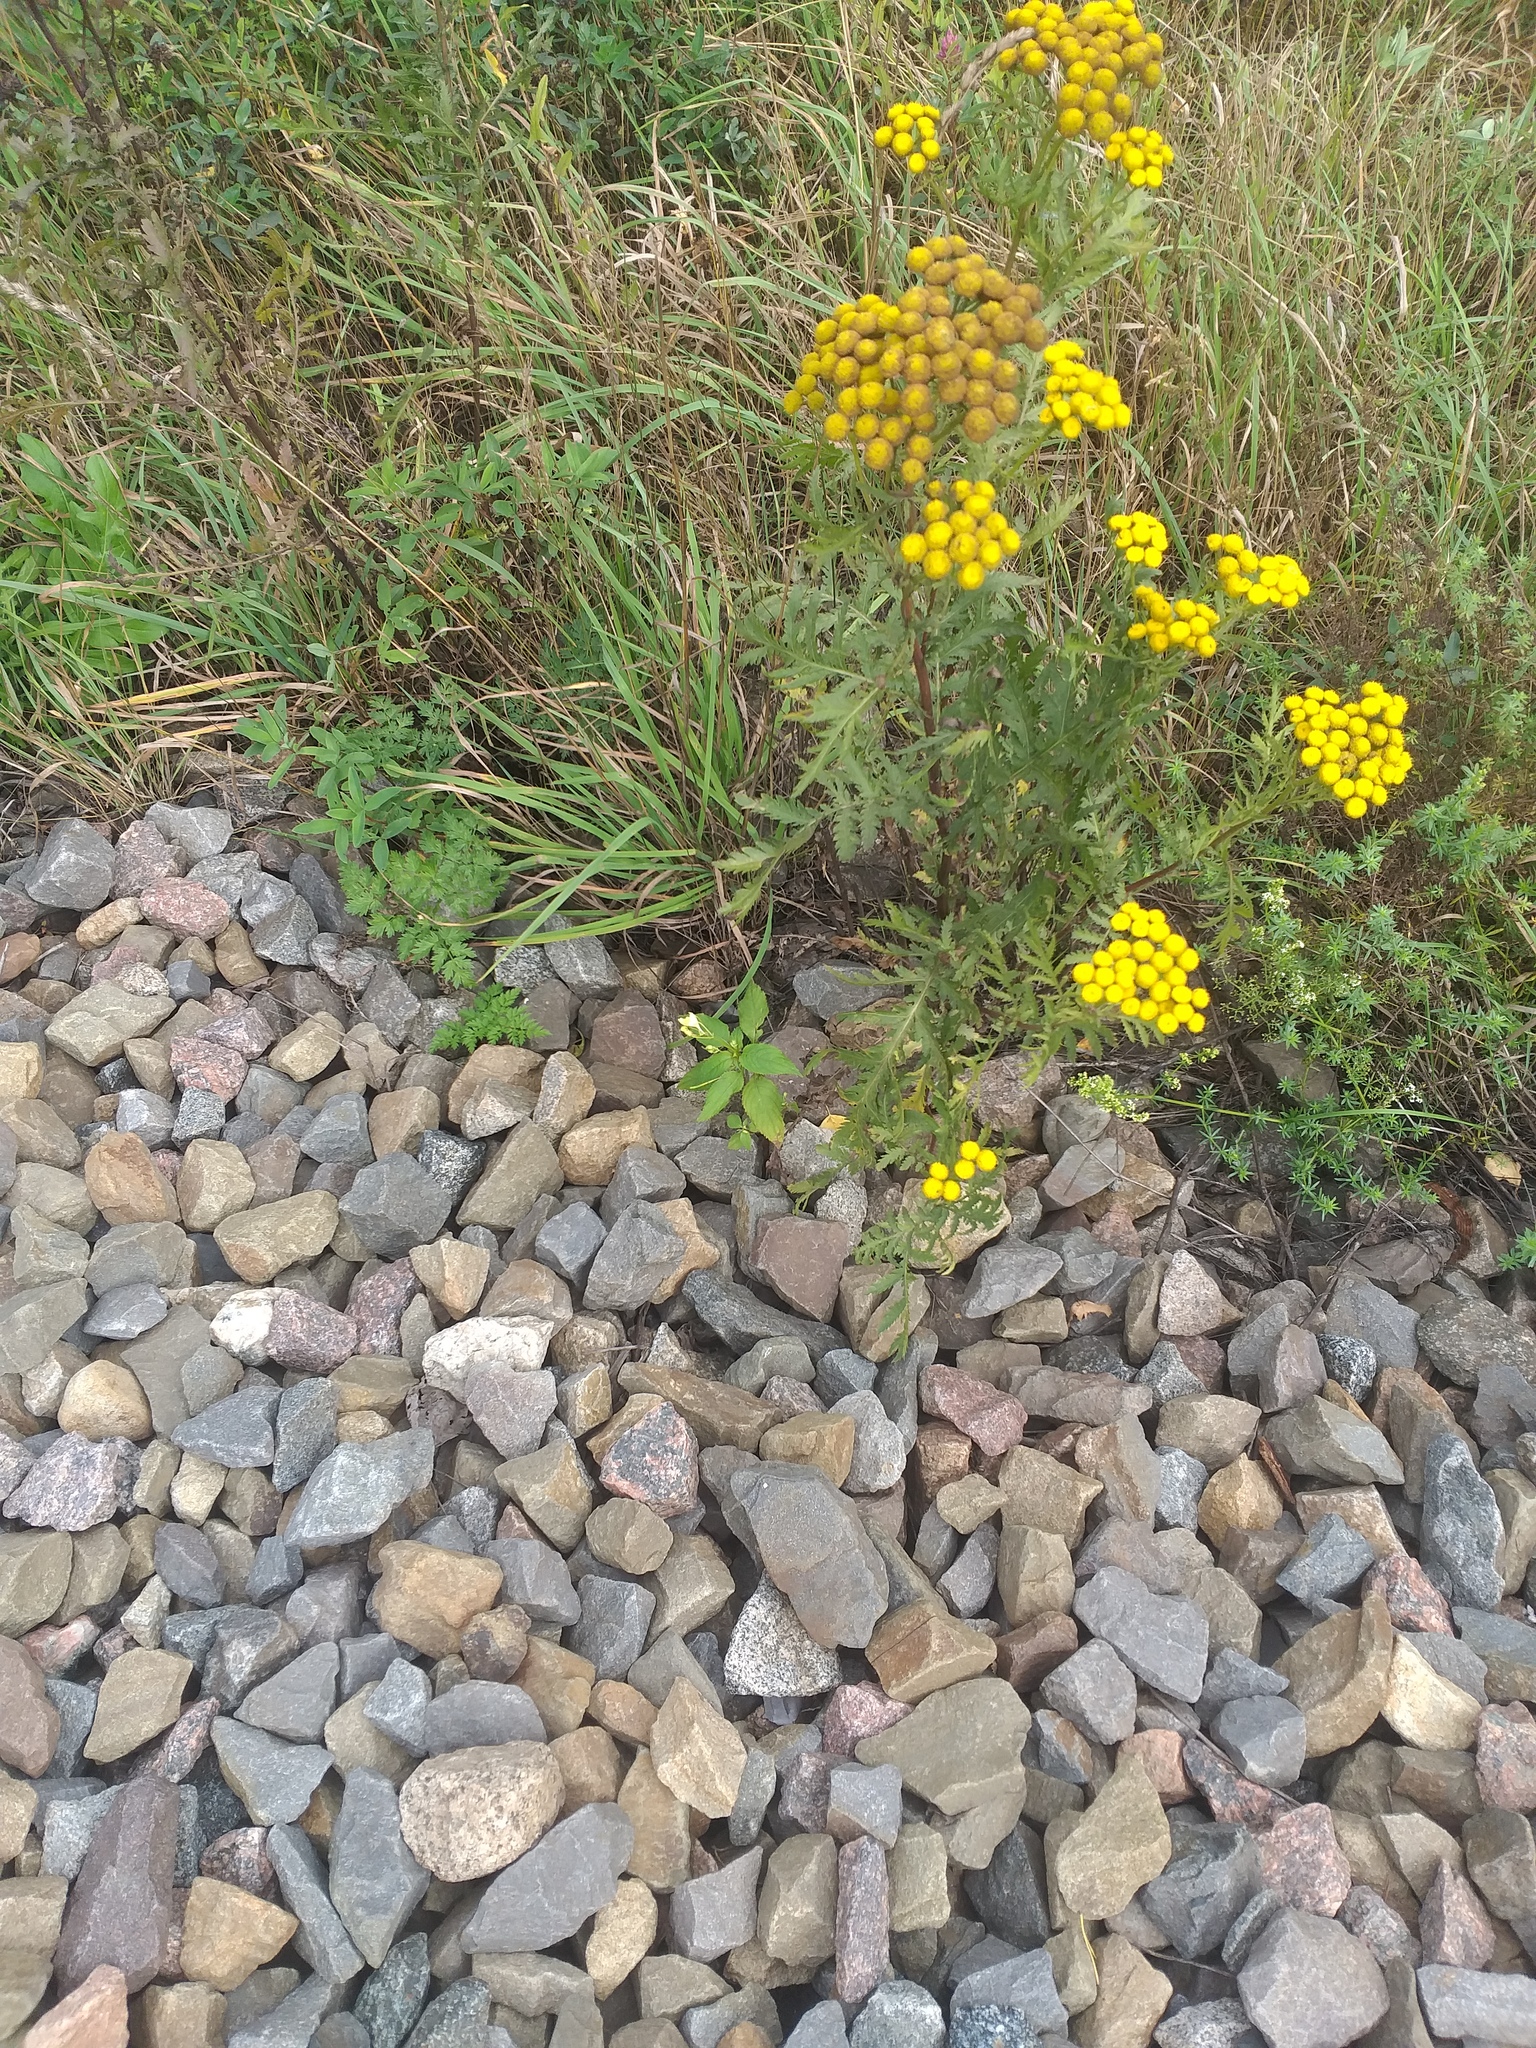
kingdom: Plantae
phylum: Tracheophyta
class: Magnoliopsida
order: Ericales
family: Balsaminaceae
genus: Impatiens
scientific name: Impatiens parviflora
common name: Small balsam
